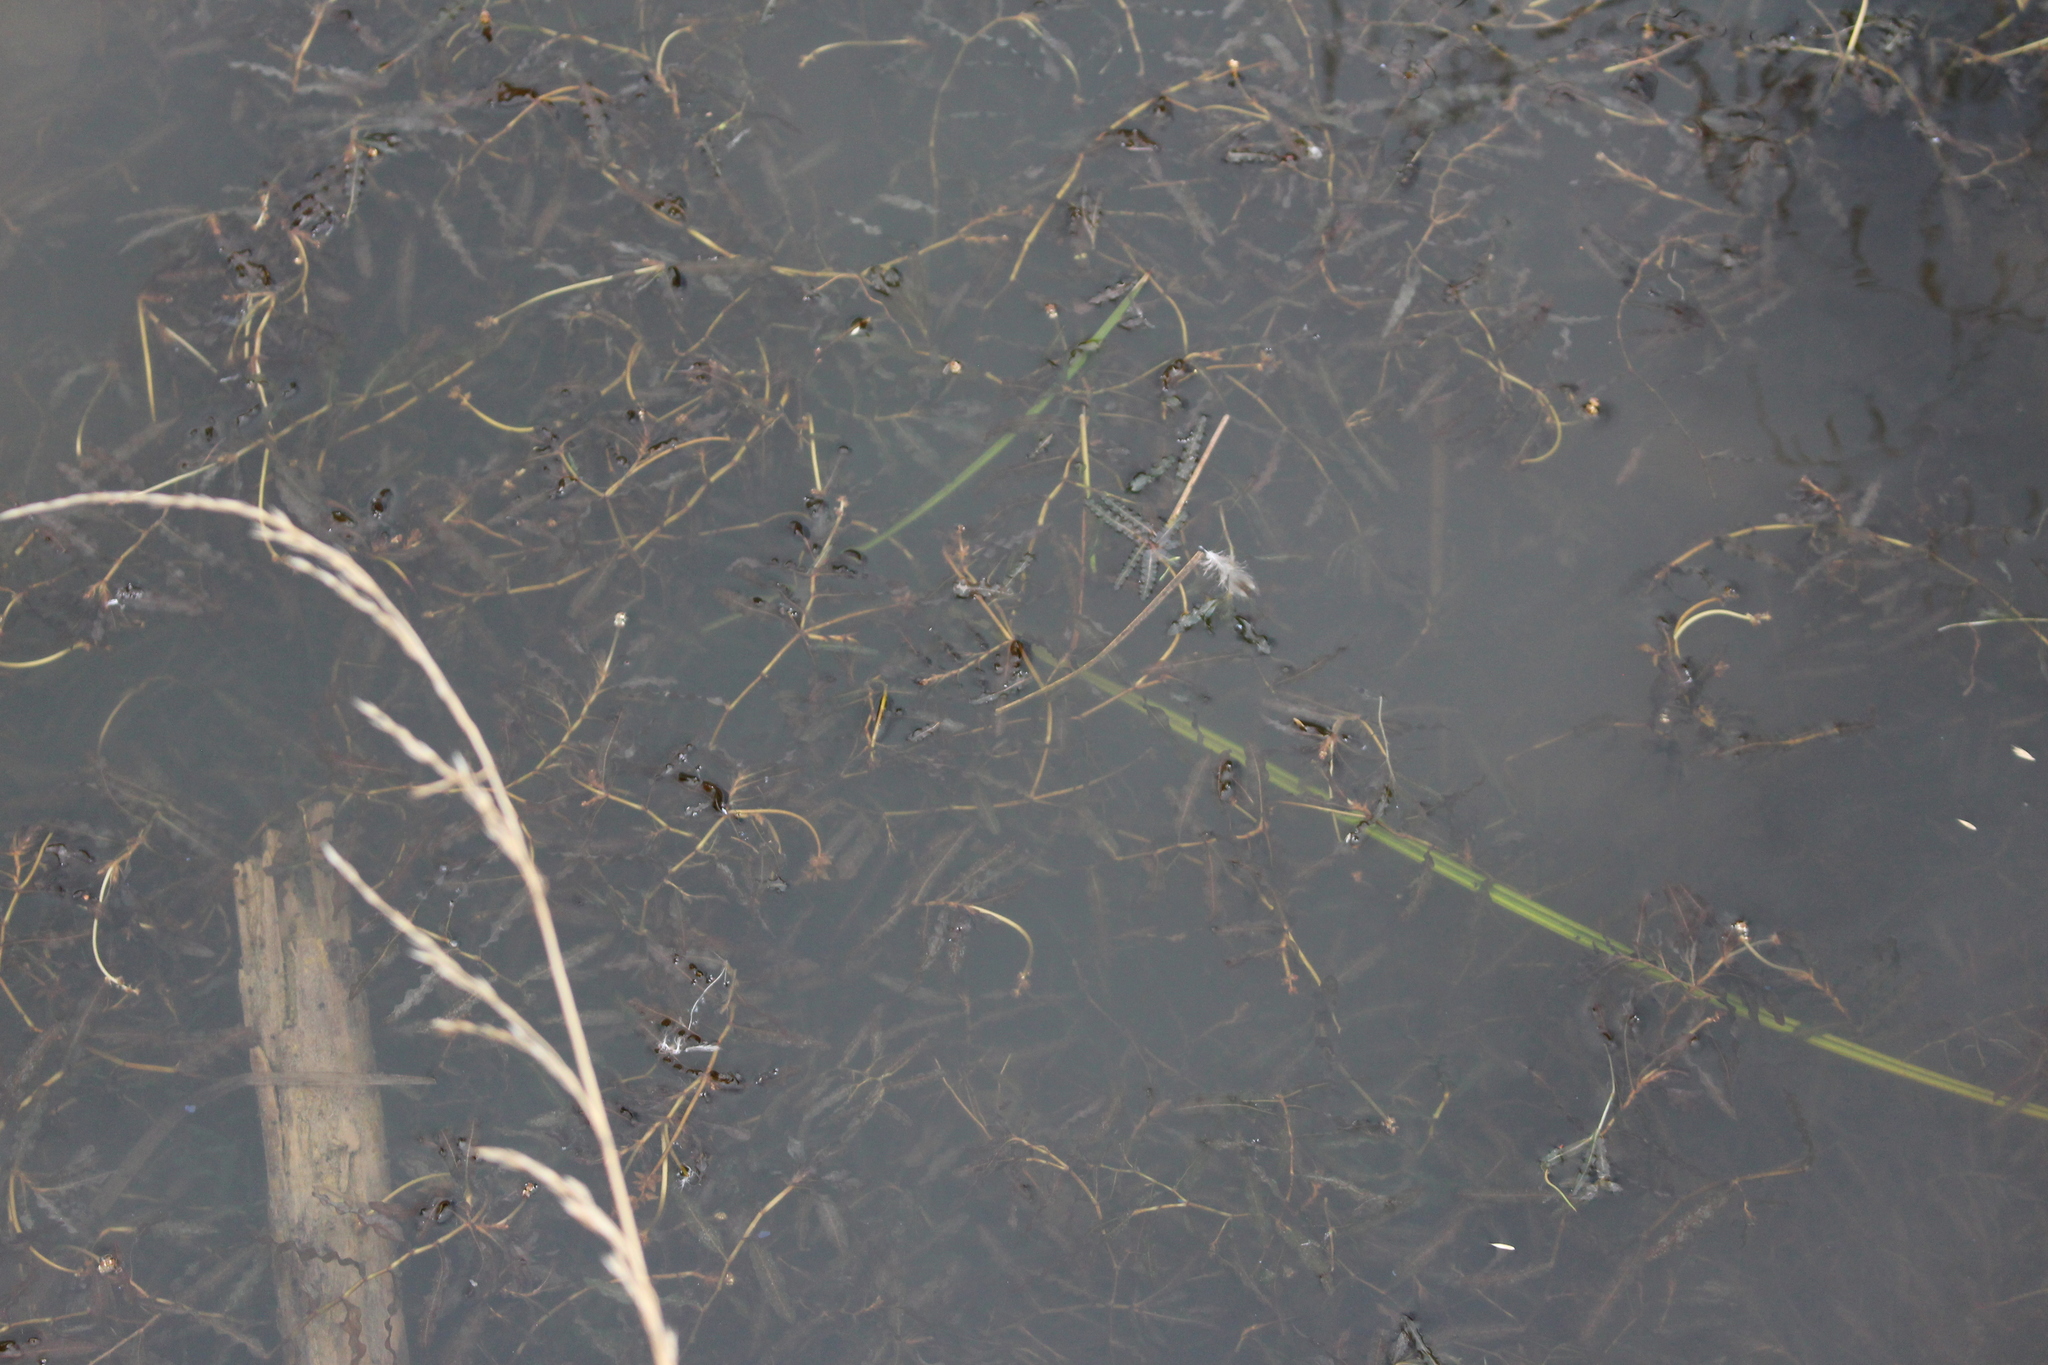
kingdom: Plantae
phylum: Tracheophyta
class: Liliopsida
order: Alismatales
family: Potamogetonaceae
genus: Potamogeton
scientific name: Potamogeton crispus
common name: Curled pondweed
